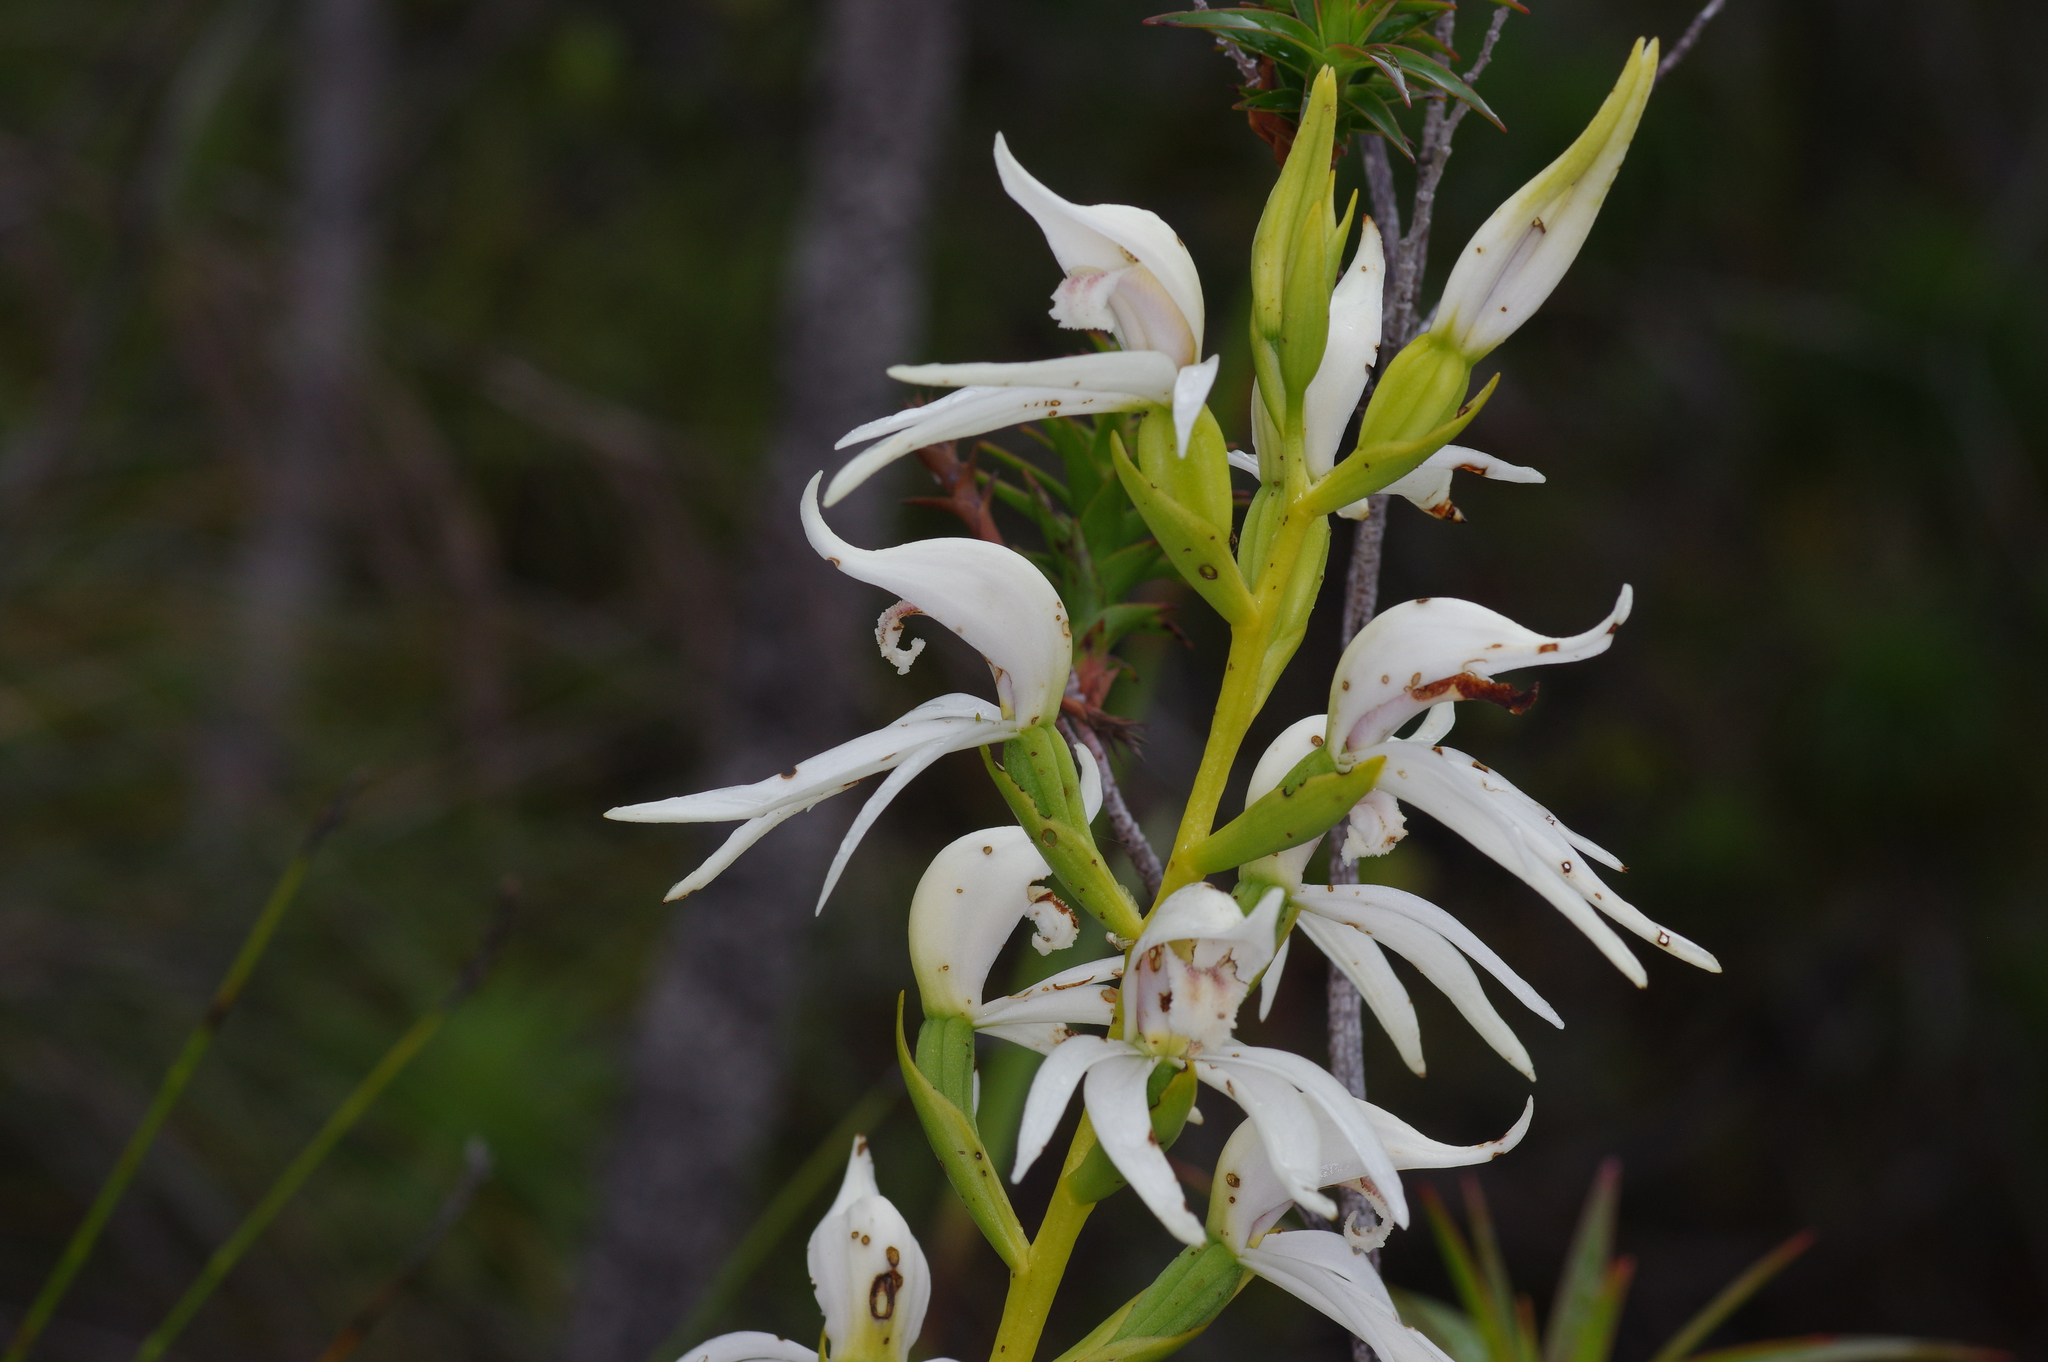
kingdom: Plantae
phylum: Tracheophyta
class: Liliopsida
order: Asparagales
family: Orchidaceae
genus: Megastylis
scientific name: Megastylis gigas
